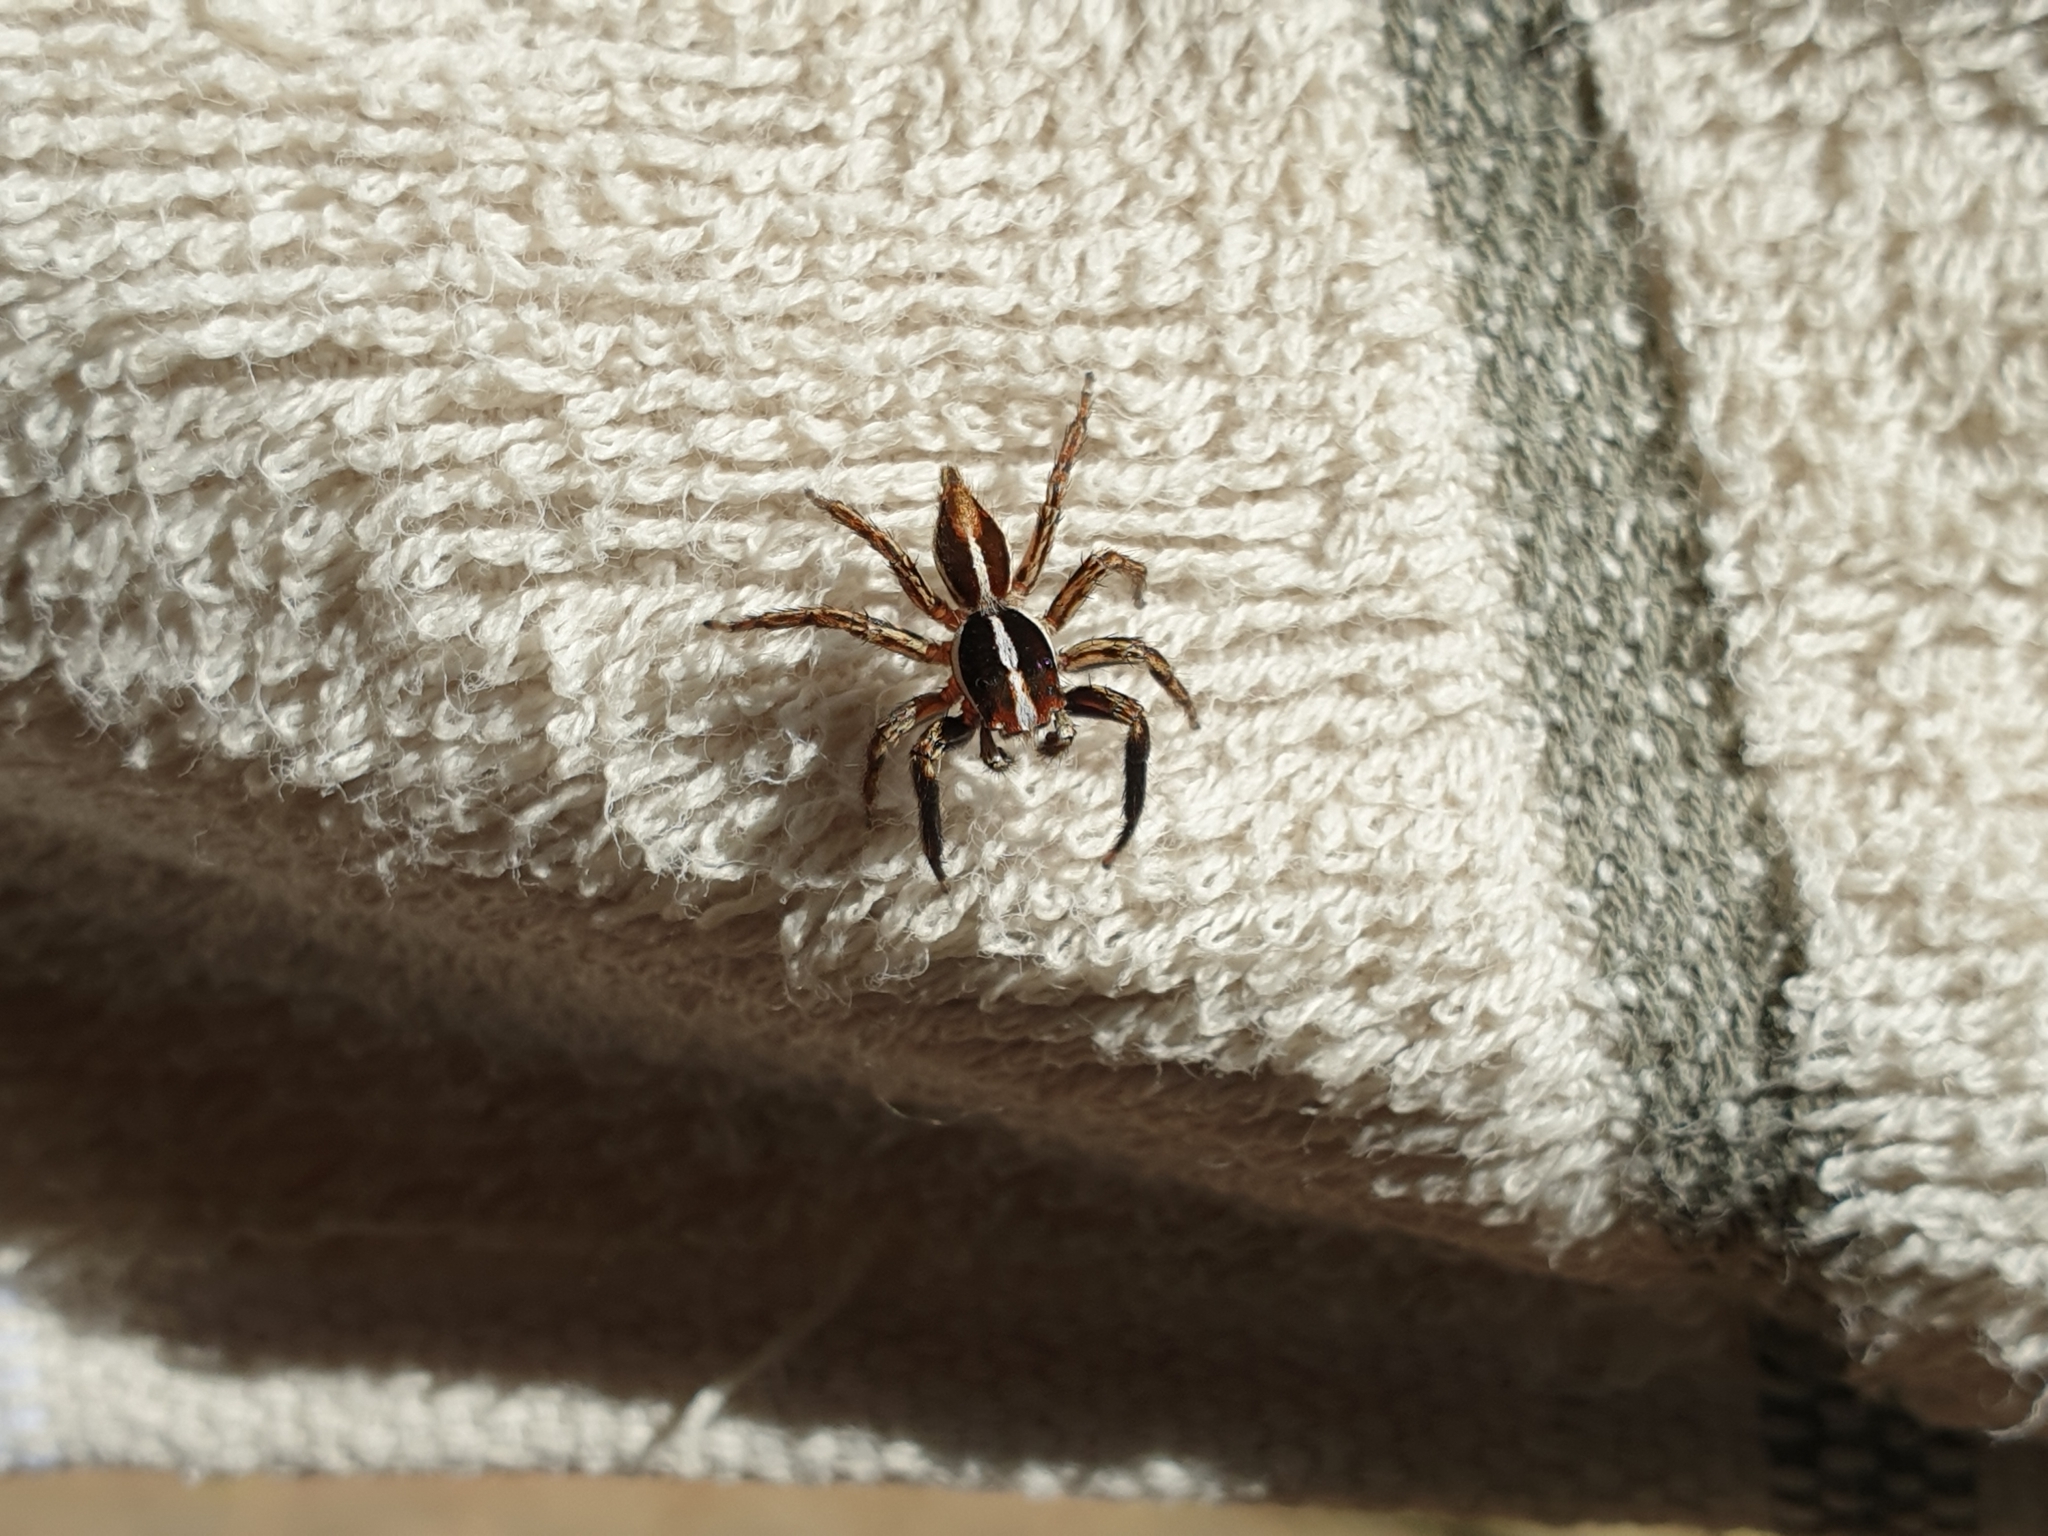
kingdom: Animalia
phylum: Arthropoda
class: Arachnida
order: Araneae
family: Salticidae
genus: Plexippus
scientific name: Plexippus paykulli
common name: Pantropical jumper
